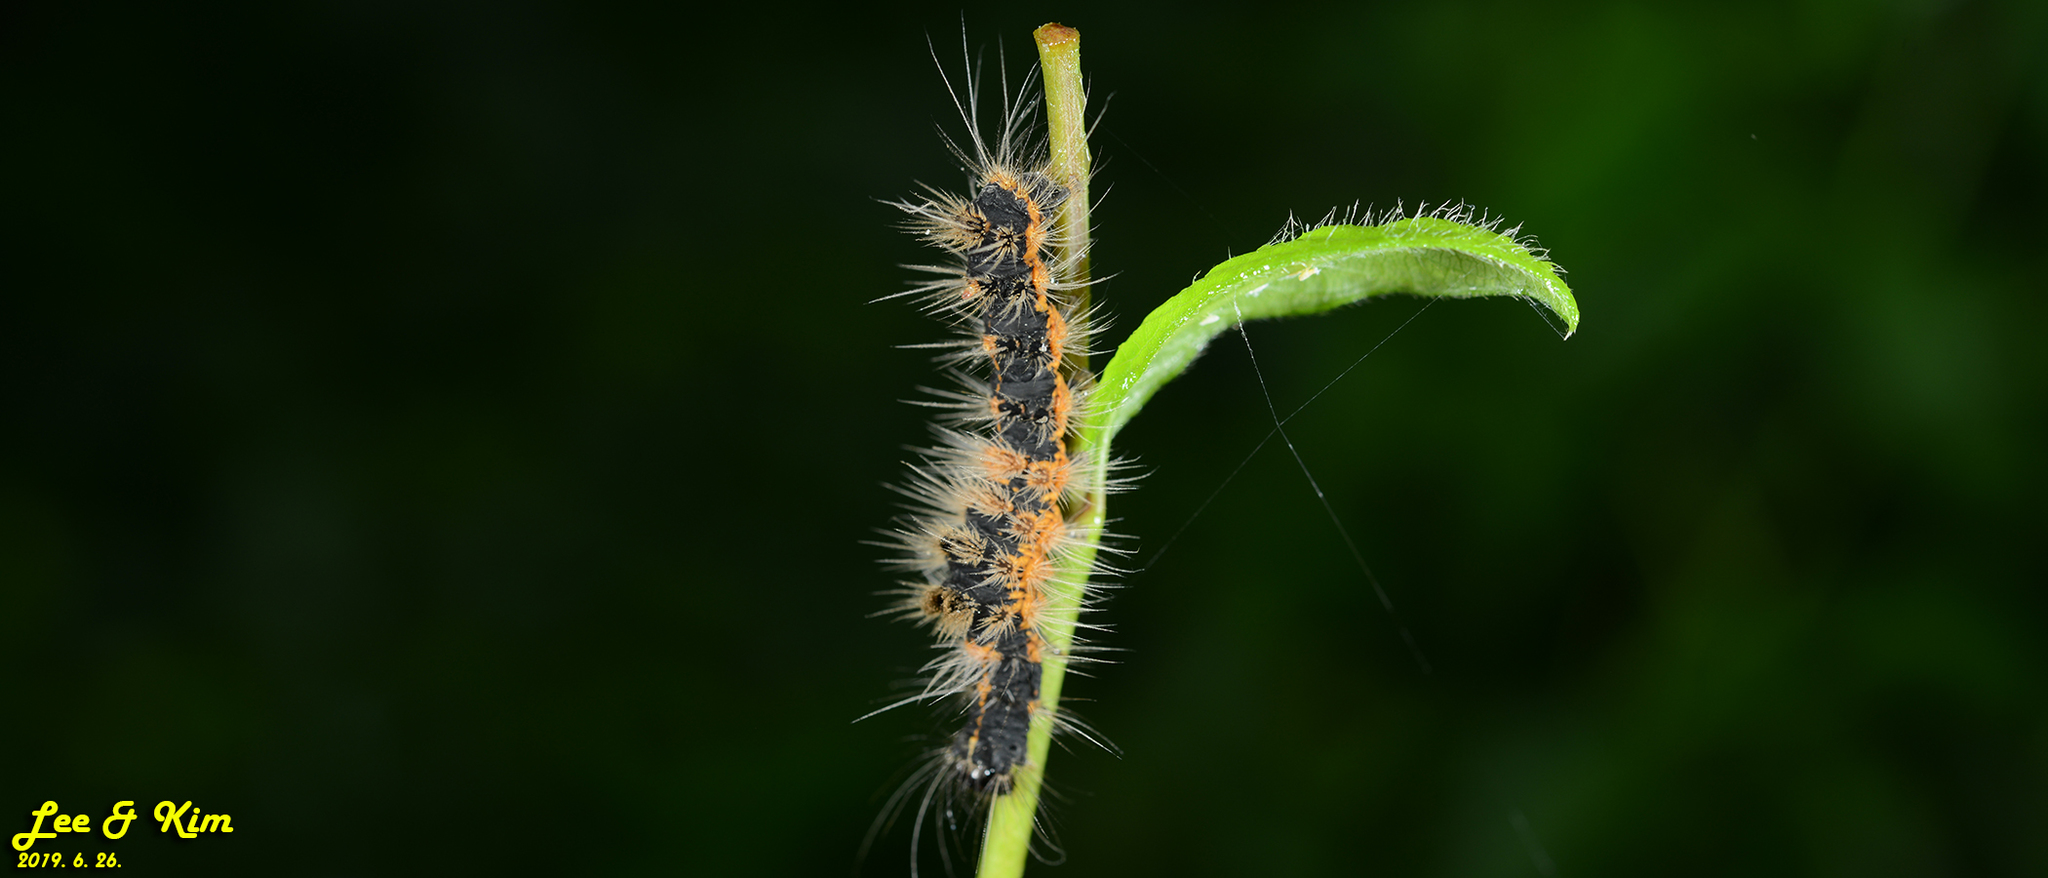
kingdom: Animalia
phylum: Arthropoda
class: Insecta
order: Lepidoptera
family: Erebidae
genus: Euproctis
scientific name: Euproctis subflava
